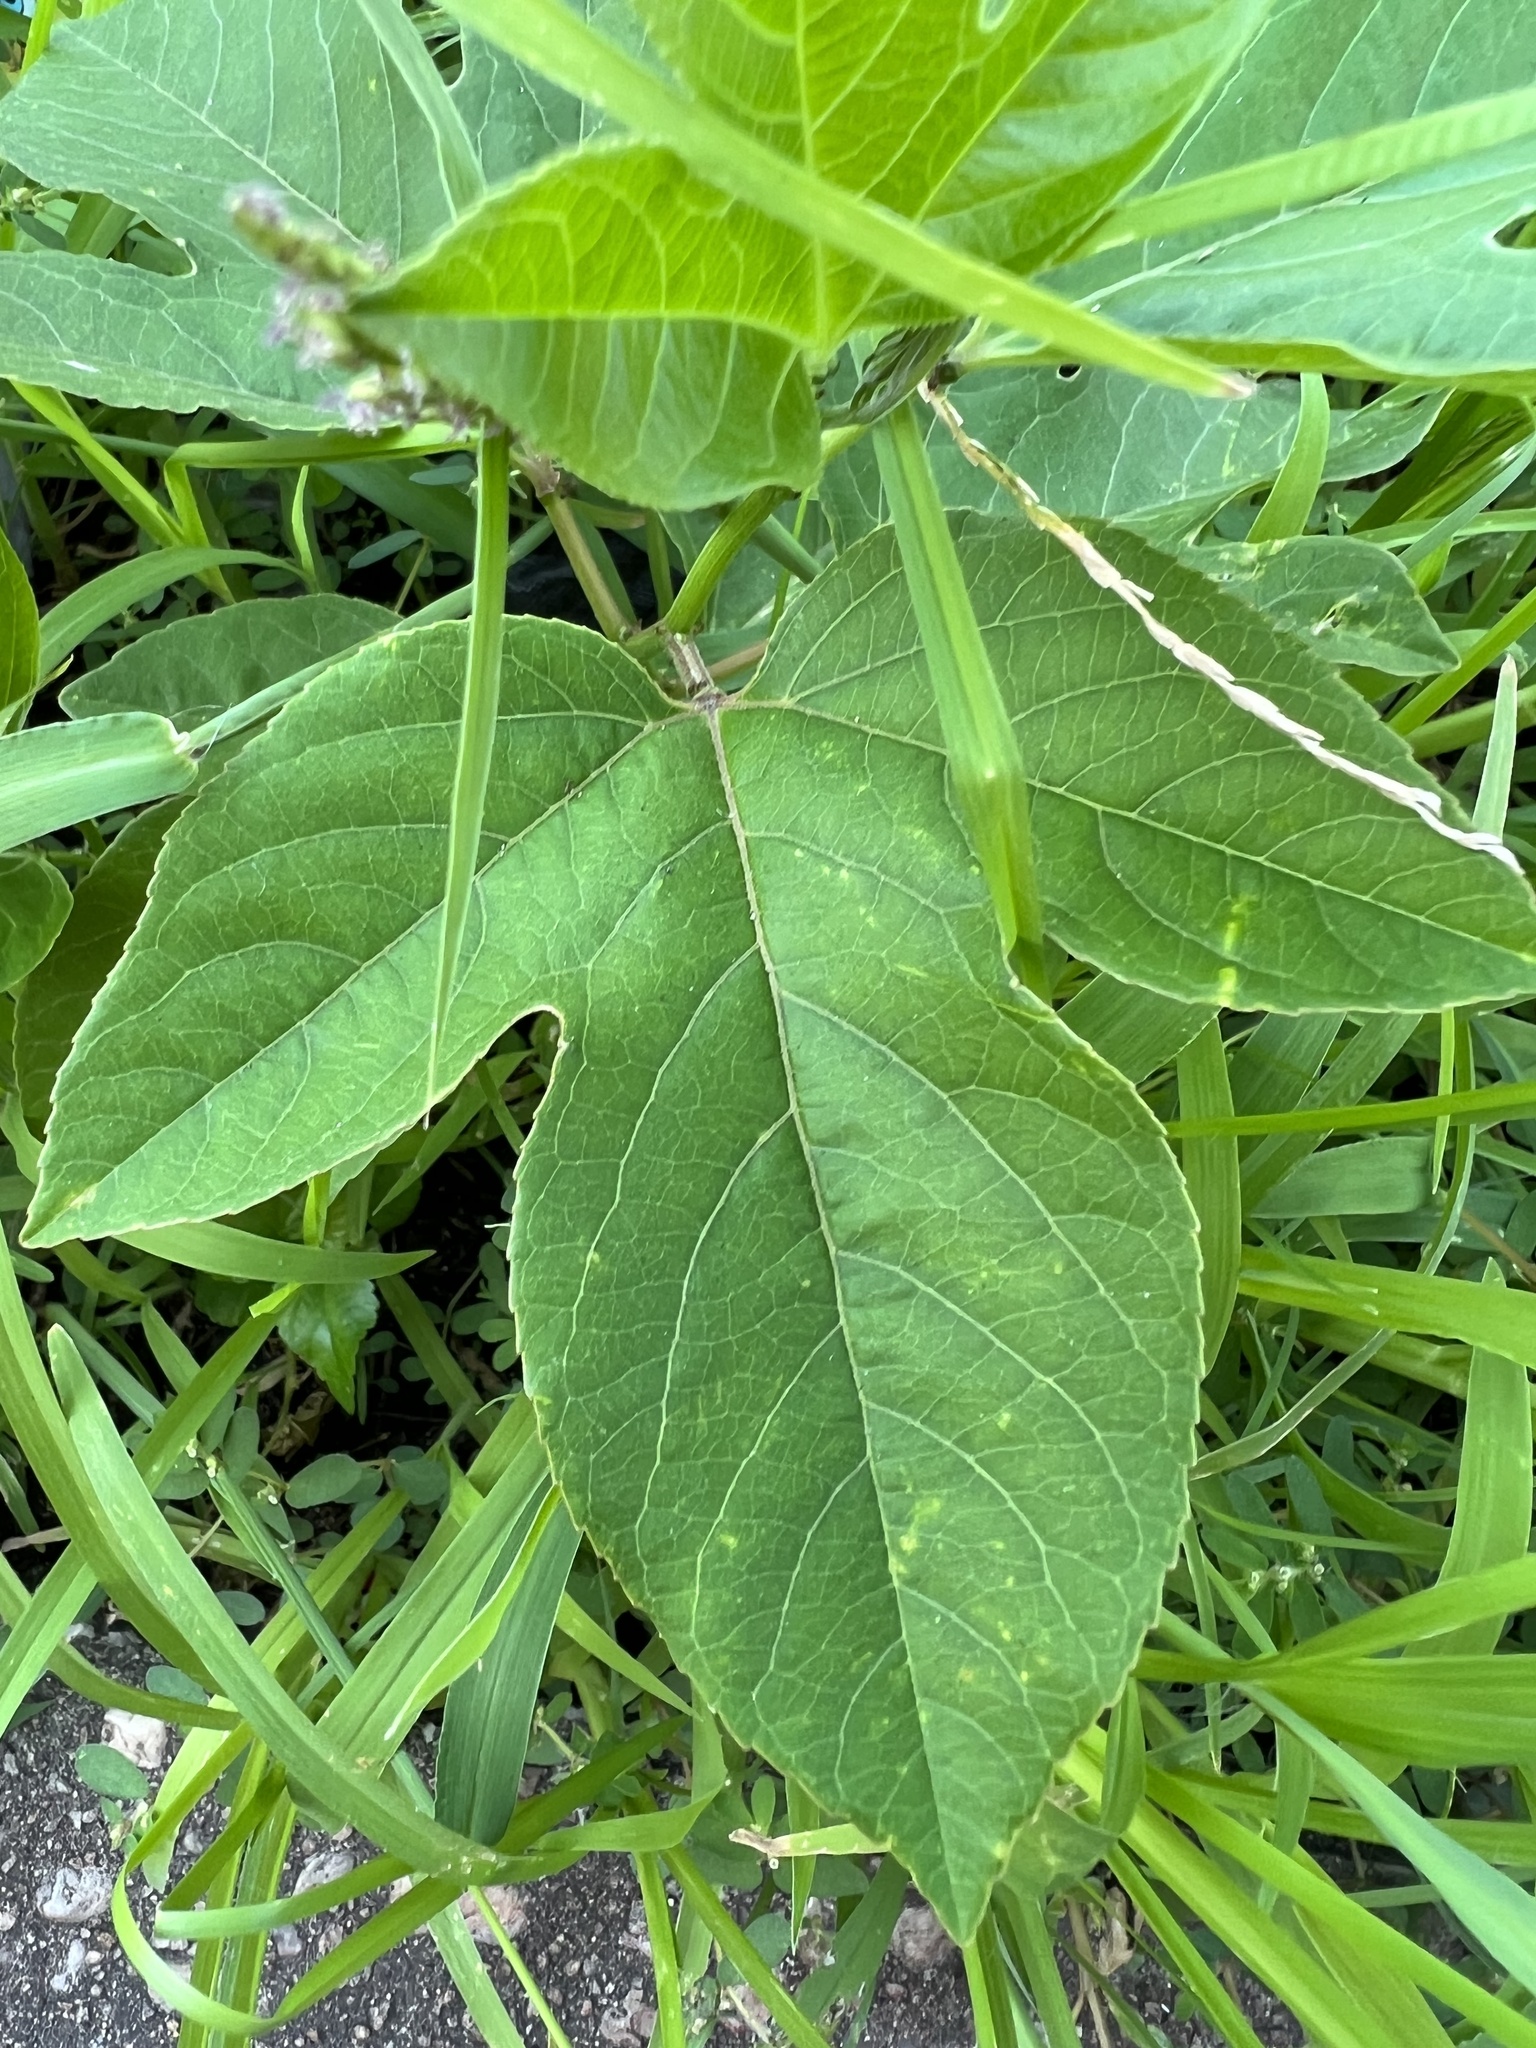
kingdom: Plantae
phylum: Tracheophyta
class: Magnoliopsida
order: Malpighiales
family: Passifloraceae
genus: Passiflora
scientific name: Passiflora incarnata
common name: Apricot-vine
